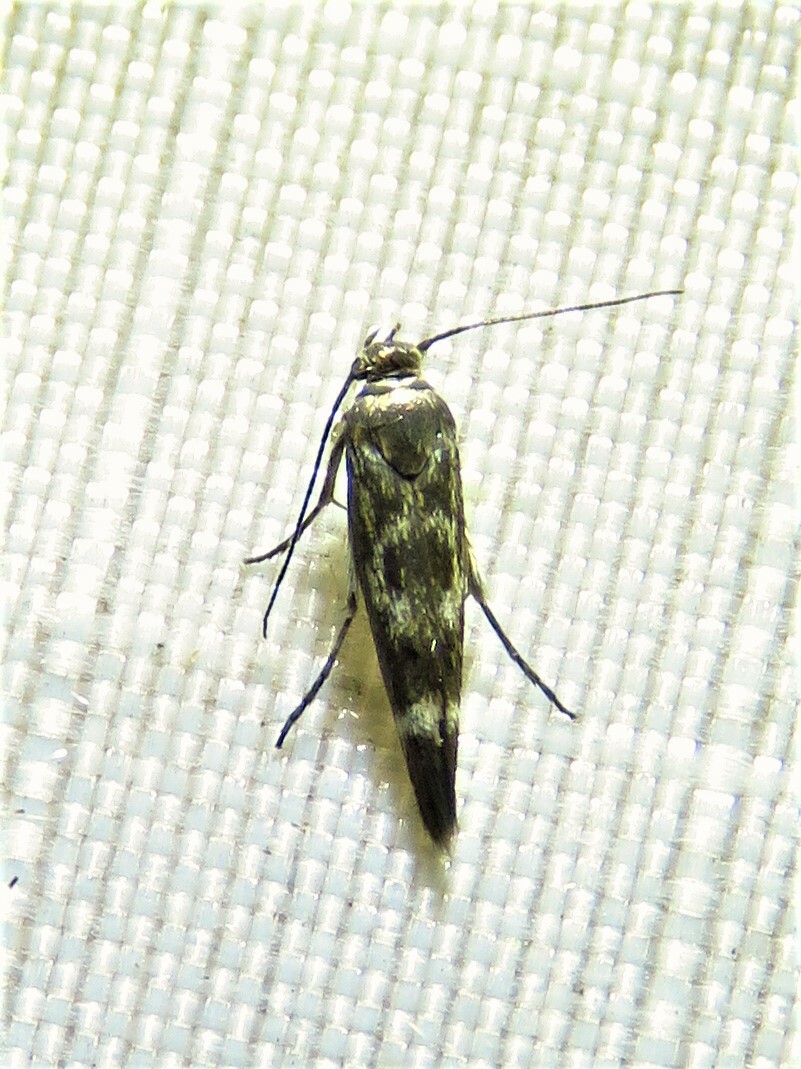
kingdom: Animalia
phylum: Arthropoda
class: Insecta
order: Lepidoptera
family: Scythrididae
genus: Scythris
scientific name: Scythris trivinctella
